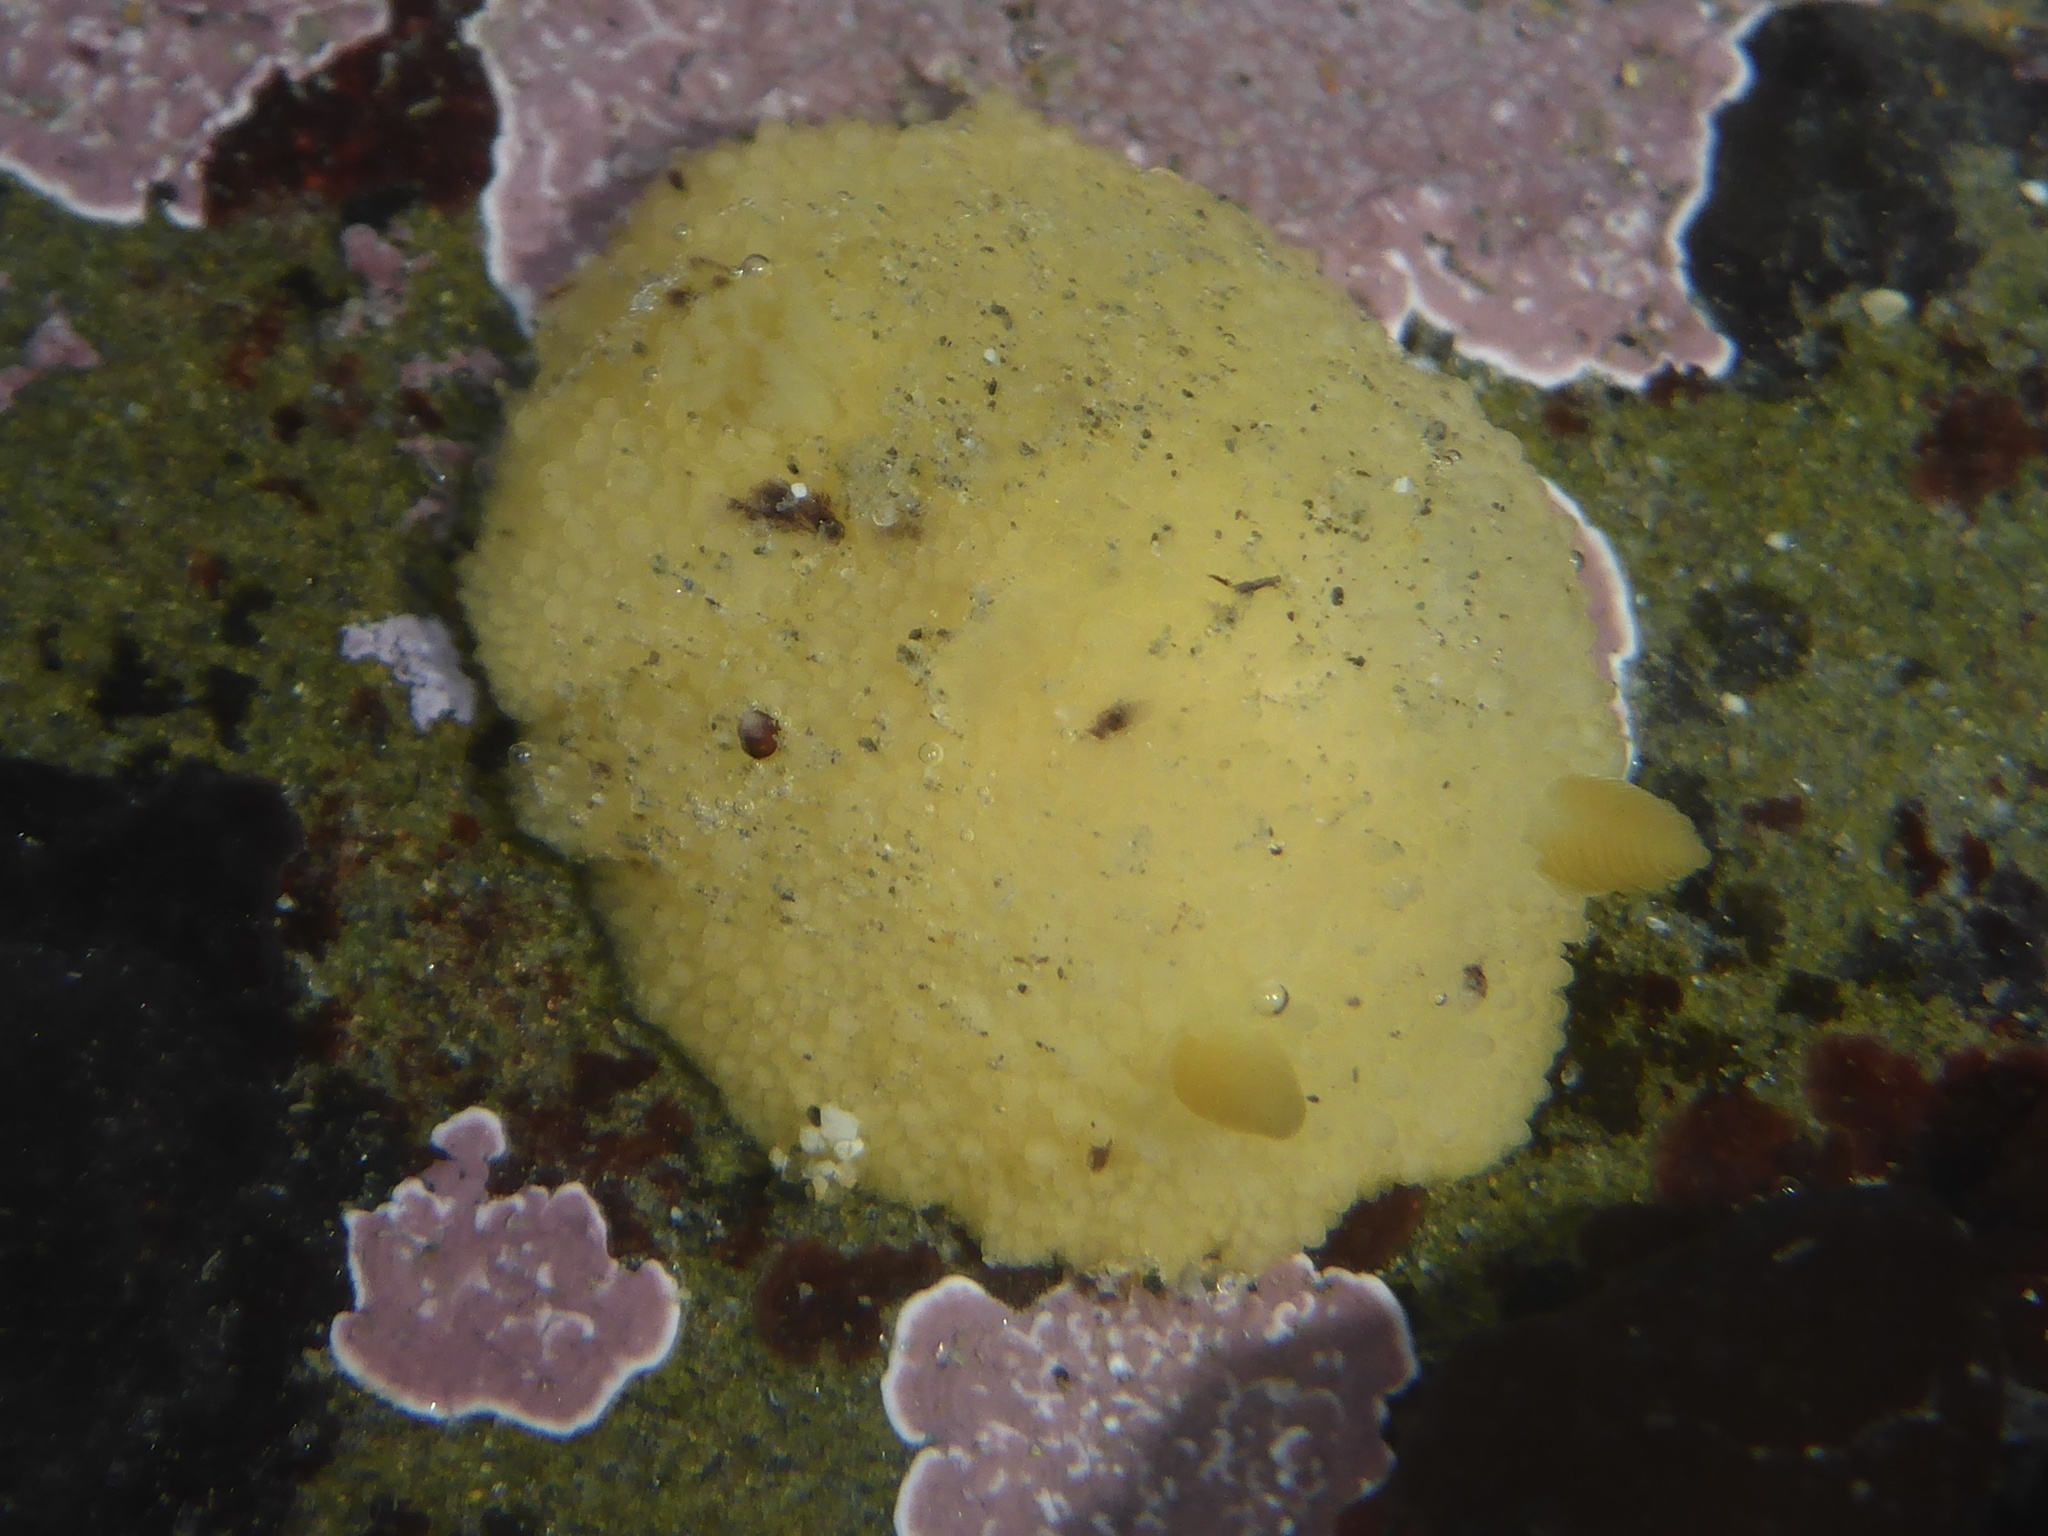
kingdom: Animalia
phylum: Mollusca
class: Gastropoda
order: Nudibranchia
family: Dorididae
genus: Doris
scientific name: Doris montereyensis
